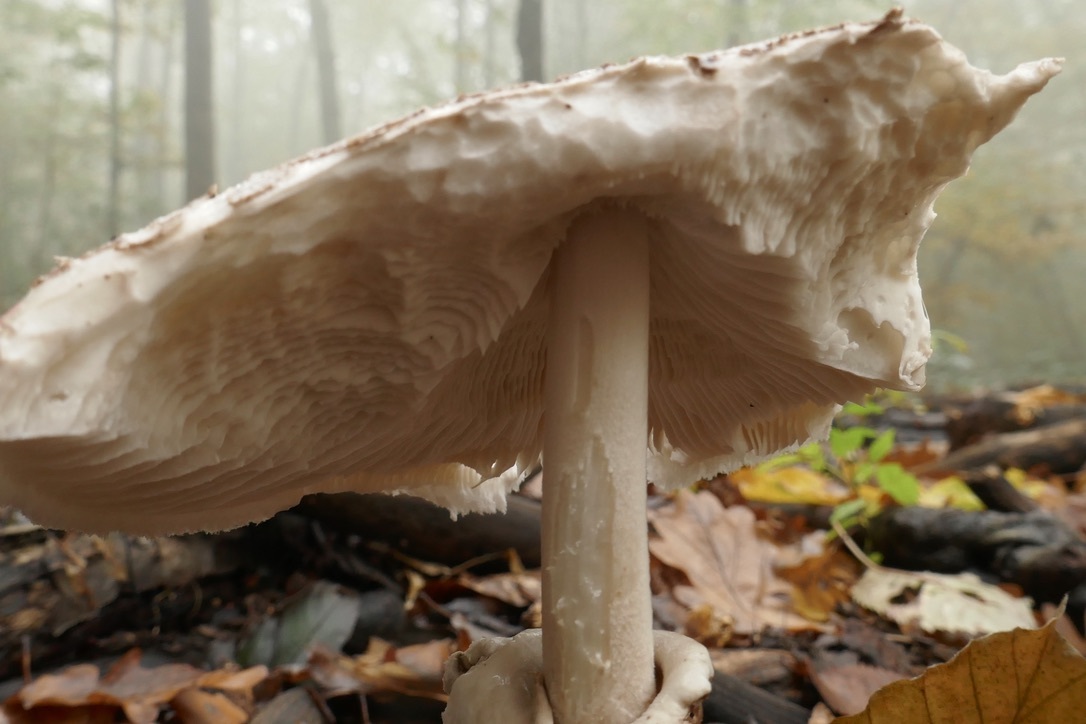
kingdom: Fungi
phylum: Basidiomycota
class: Agaricomycetes
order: Agaricales
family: Agaricaceae
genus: Macrolepiota
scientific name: Macrolepiota mastoidea
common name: Slender parasol
